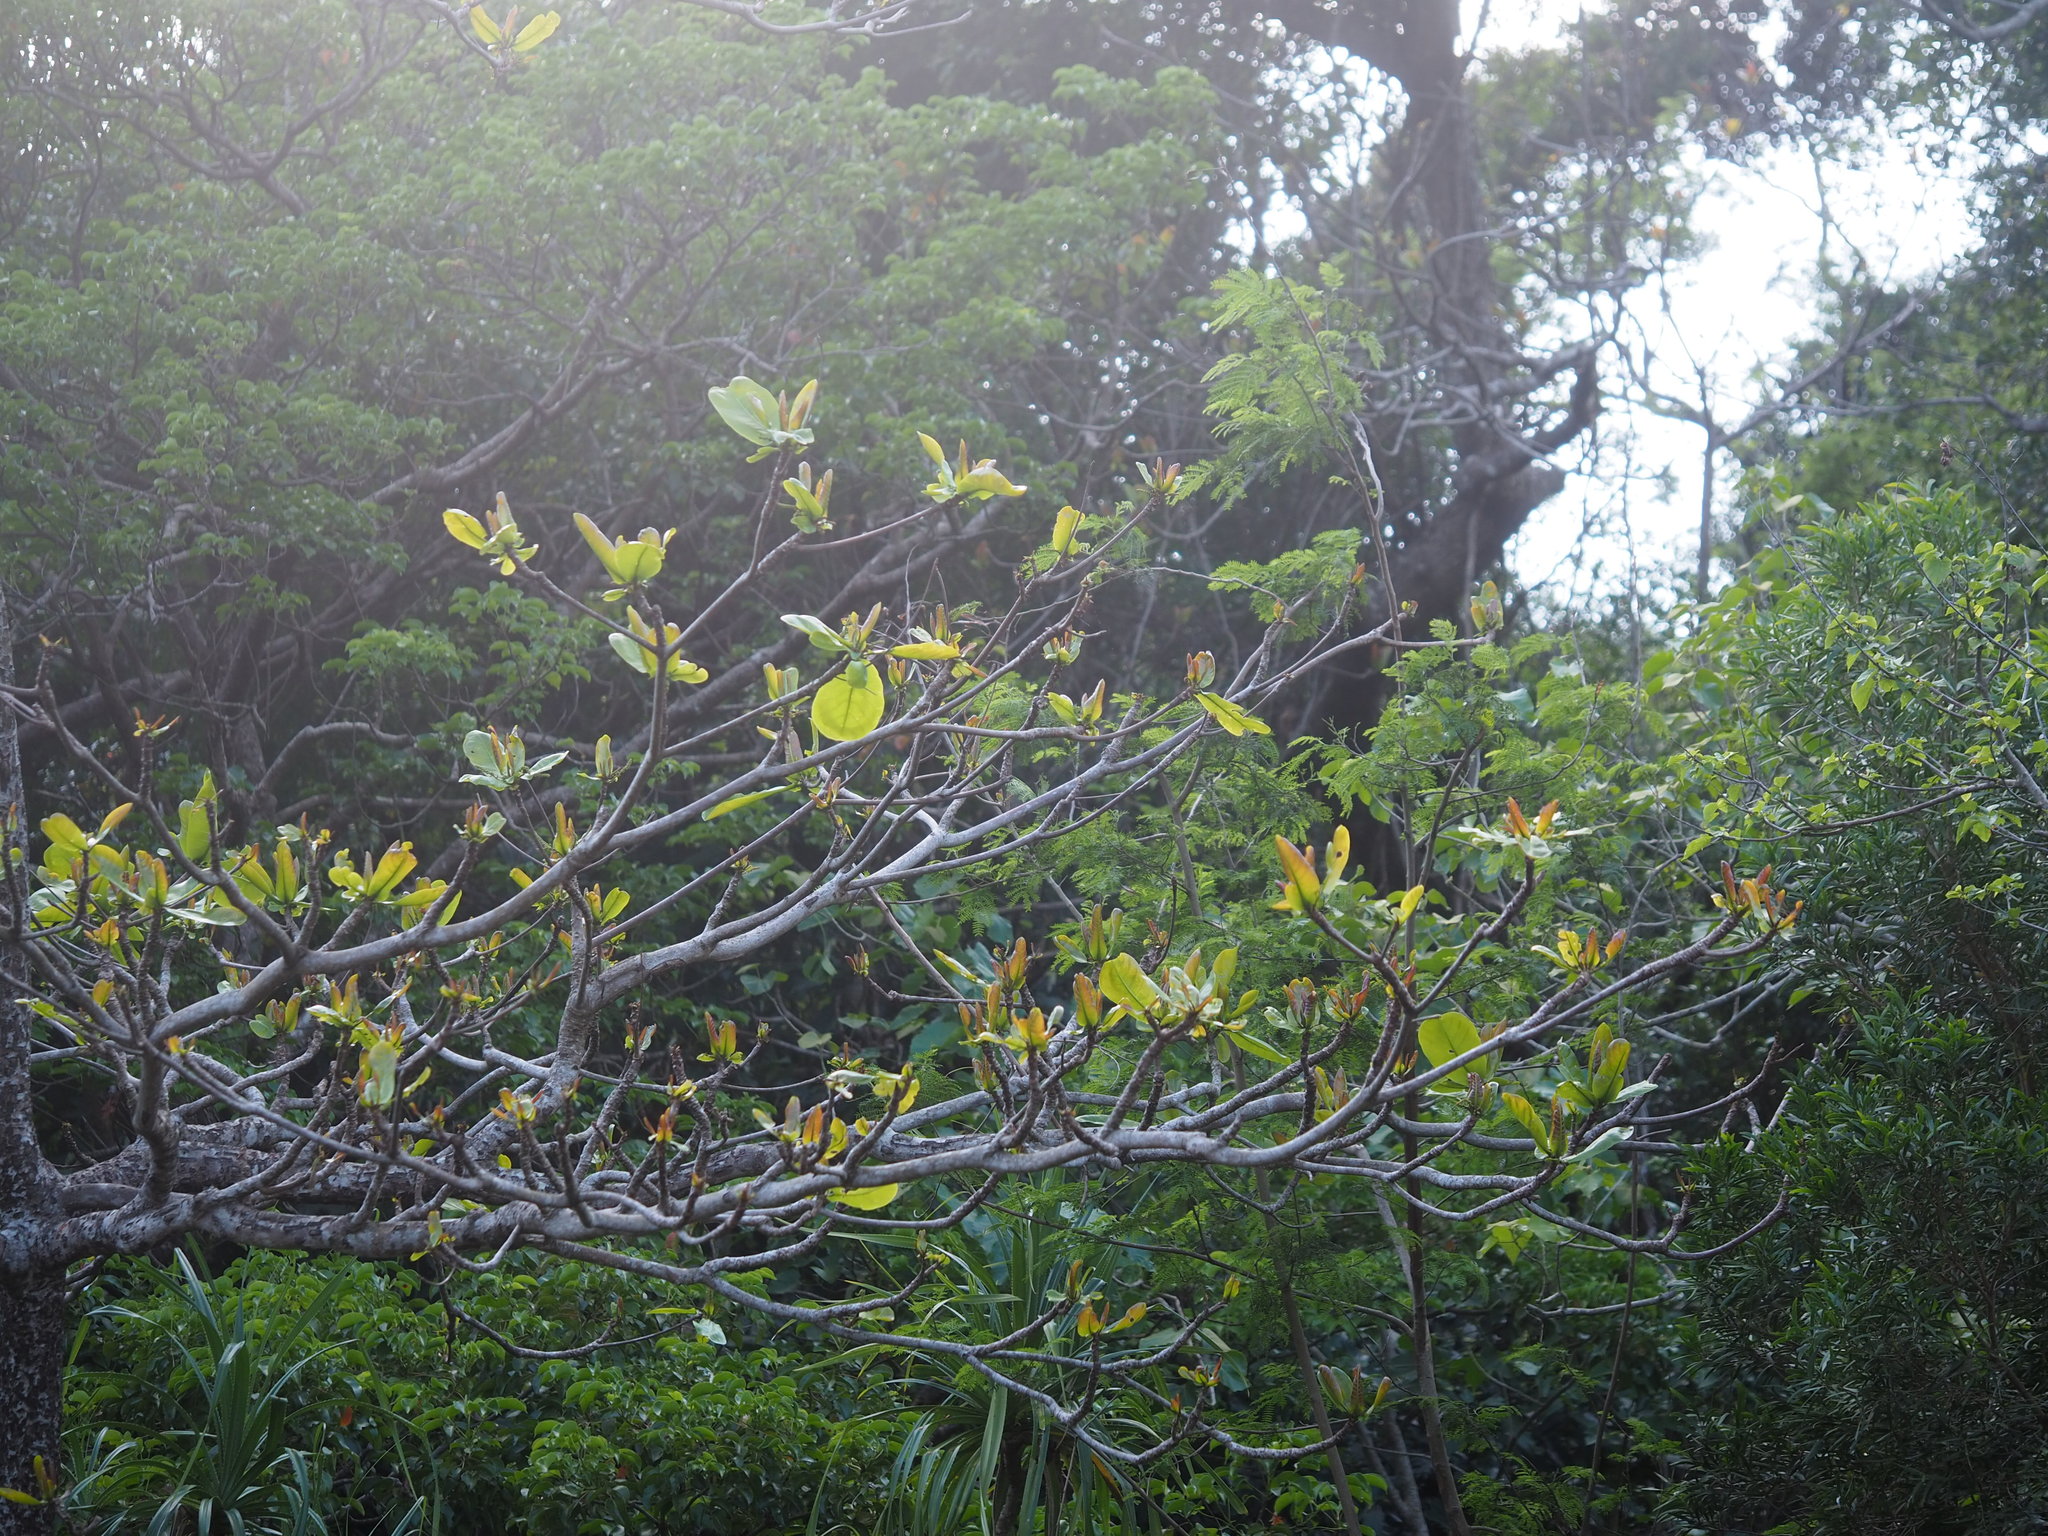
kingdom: Plantae
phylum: Tracheophyta
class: Magnoliopsida
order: Myrtales
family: Combretaceae
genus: Terminalia
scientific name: Terminalia catappa
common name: Tropical almond
